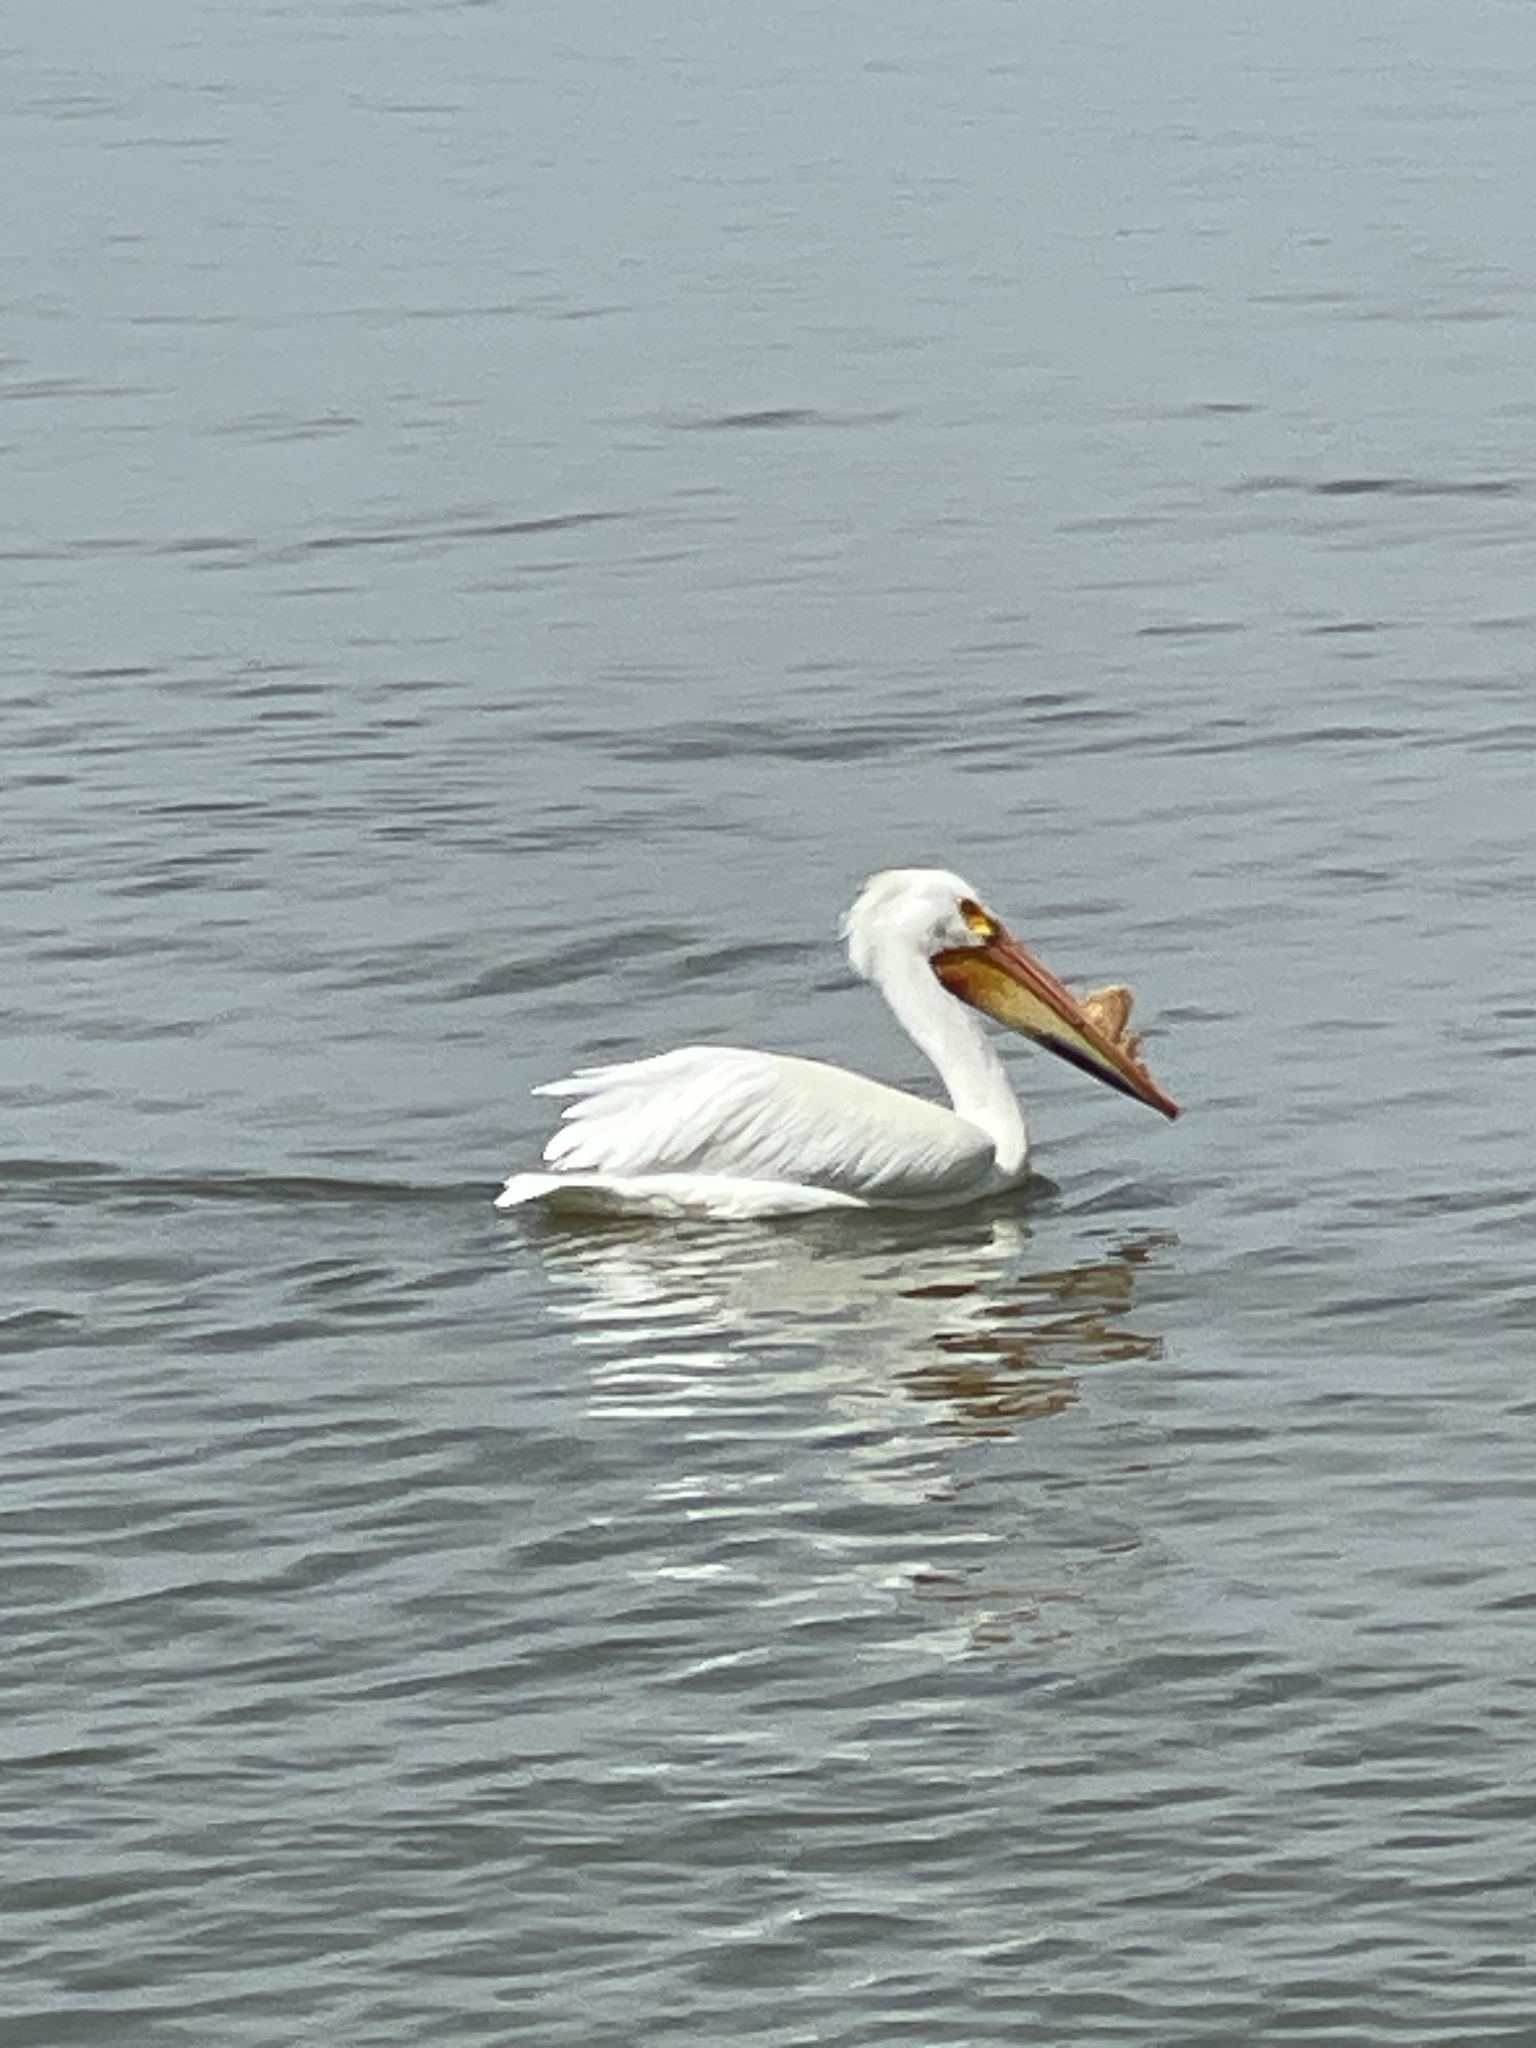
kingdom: Animalia
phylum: Chordata
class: Aves
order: Pelecaniformes
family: Pelecanidae
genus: Pelecanus
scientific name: Pelecanus erythrorhynchos
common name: American white pelican
